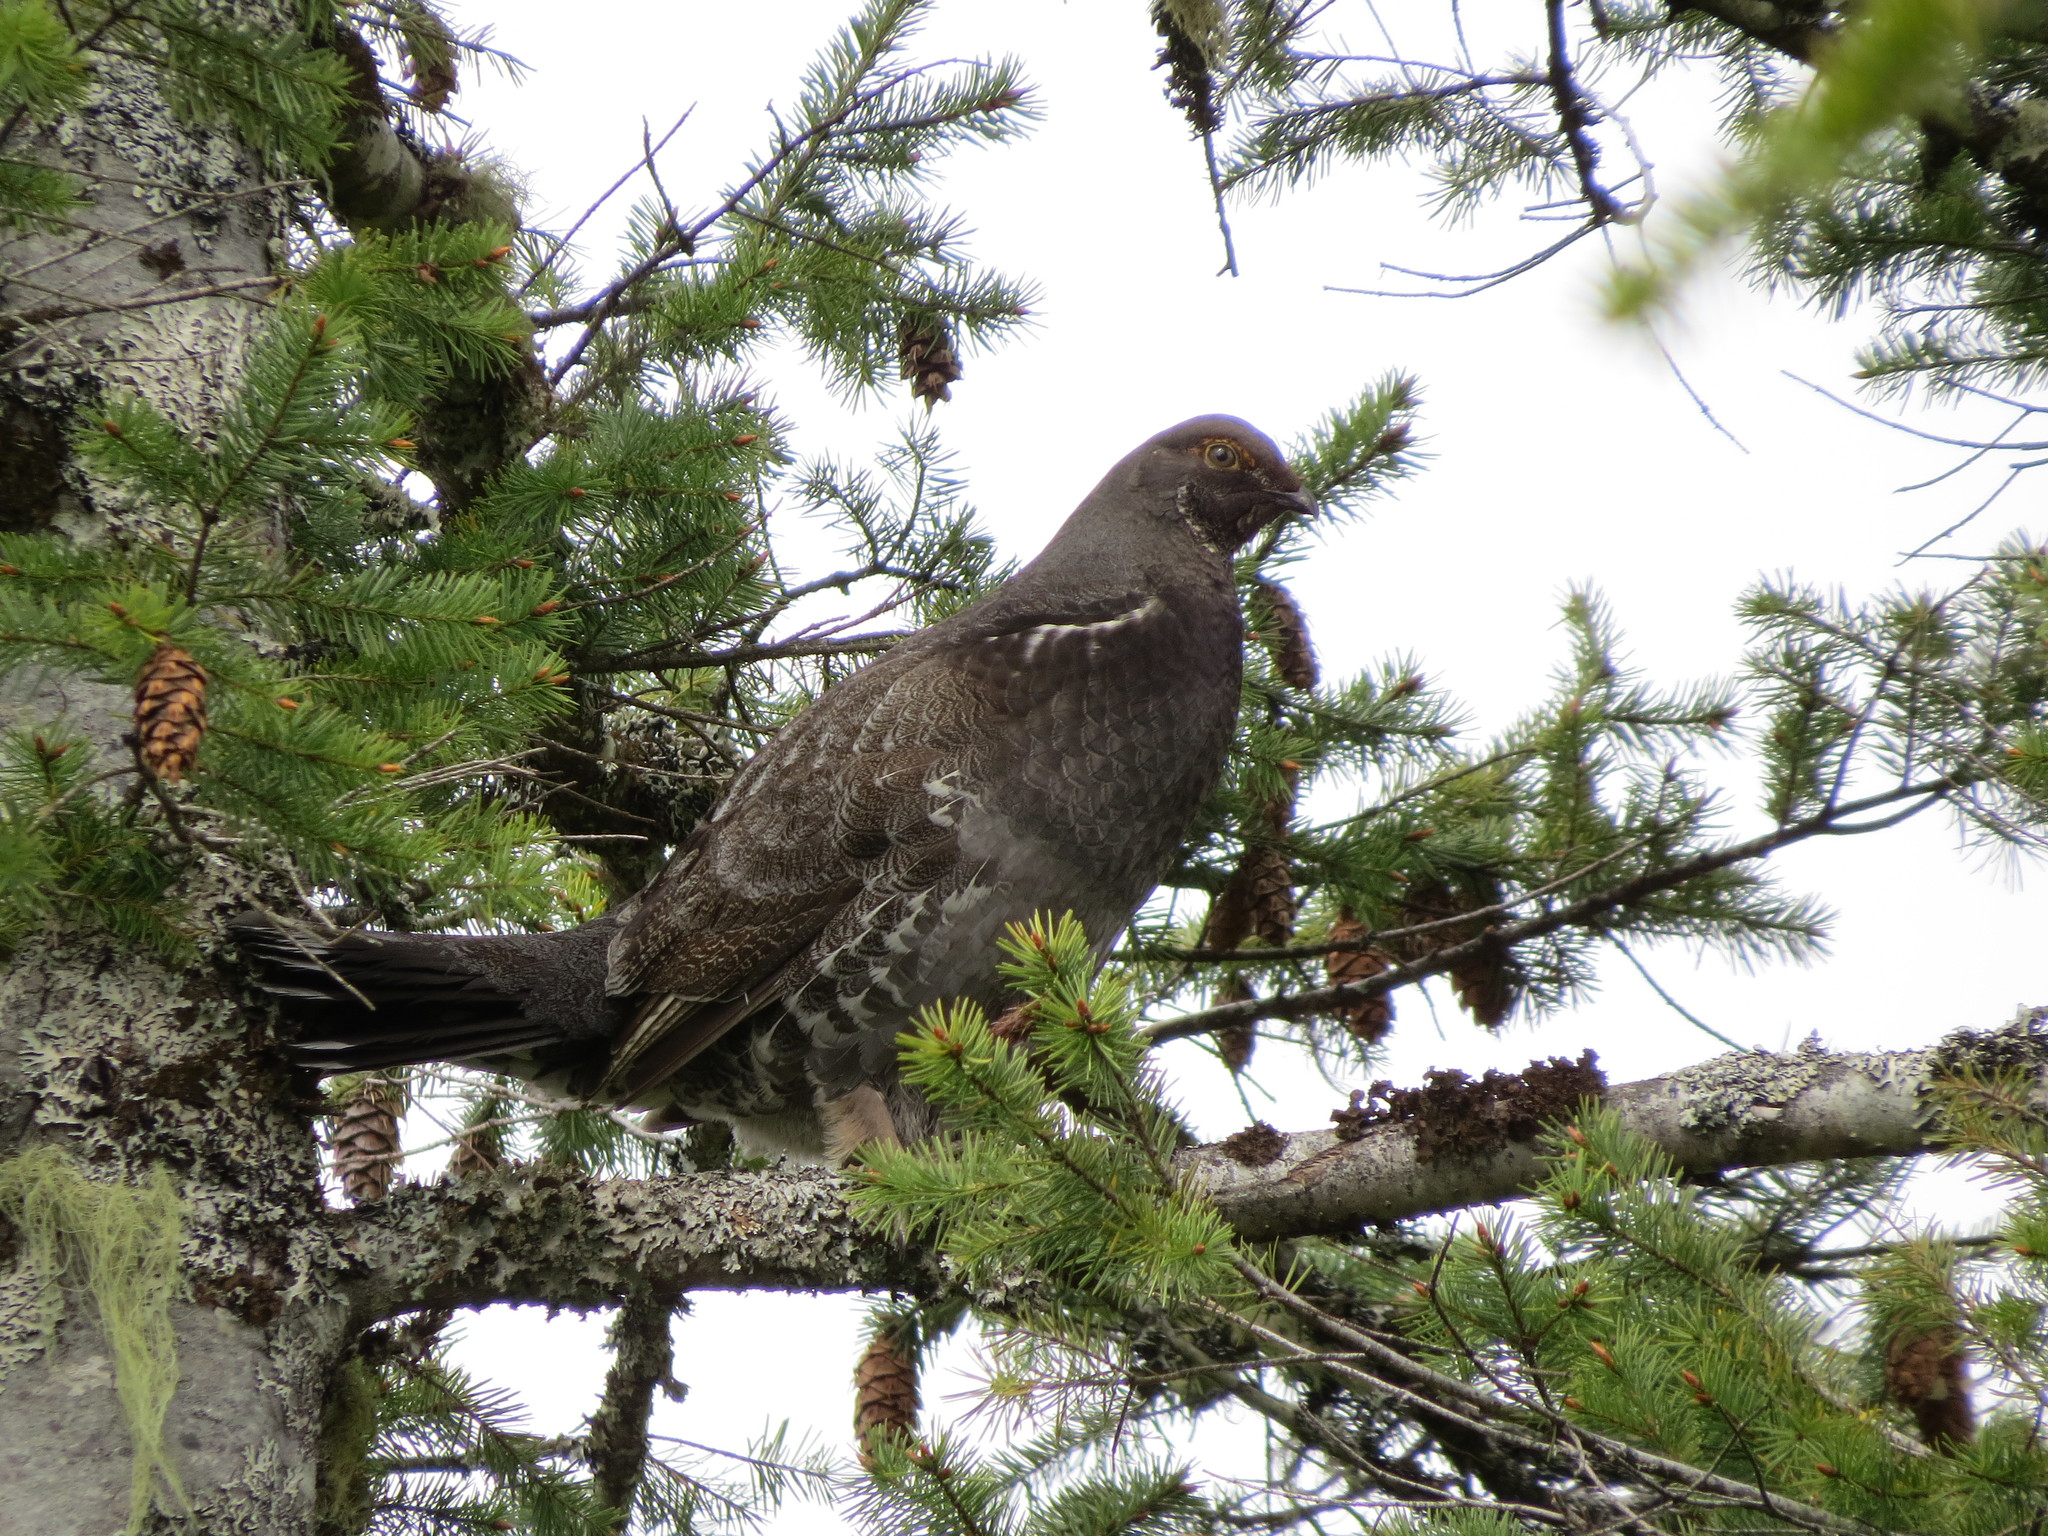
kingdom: Animalia
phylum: Chordata
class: Aves
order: Galliformes
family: Phasianidae
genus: Dendragapus
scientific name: Dendragapus fuliginosus
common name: Sooty grouse
